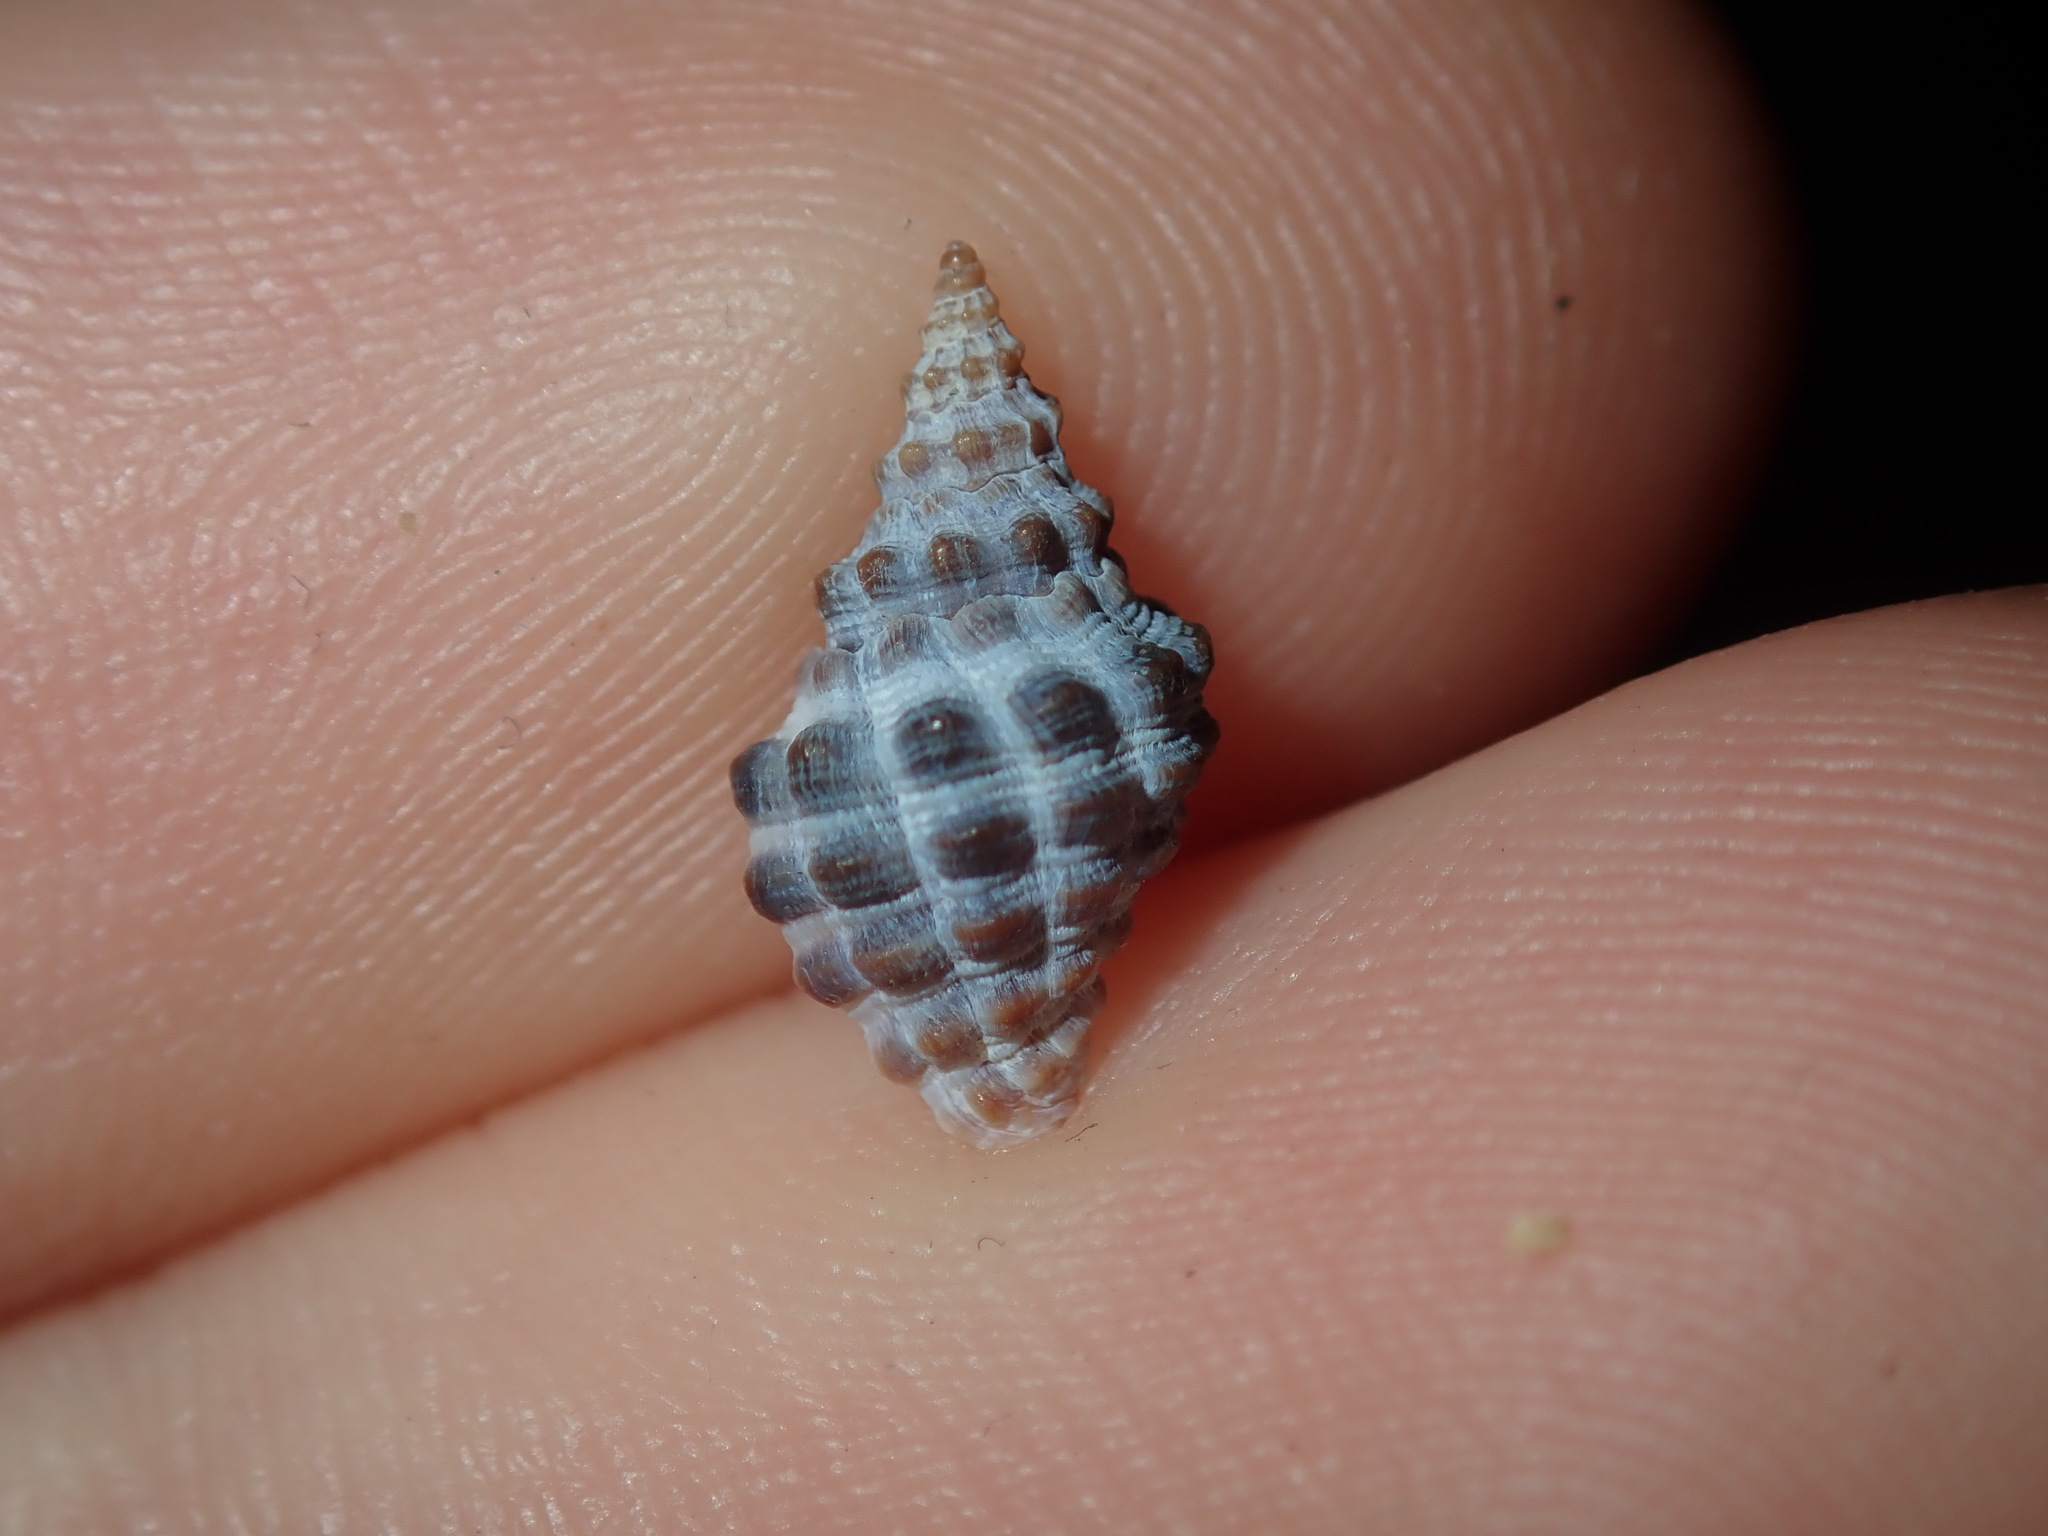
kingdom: Animalia
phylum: Mollusca
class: Gastropoda
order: Neogastropoda
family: Muricidae
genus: Tenguella
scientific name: Tenguella marginalba
